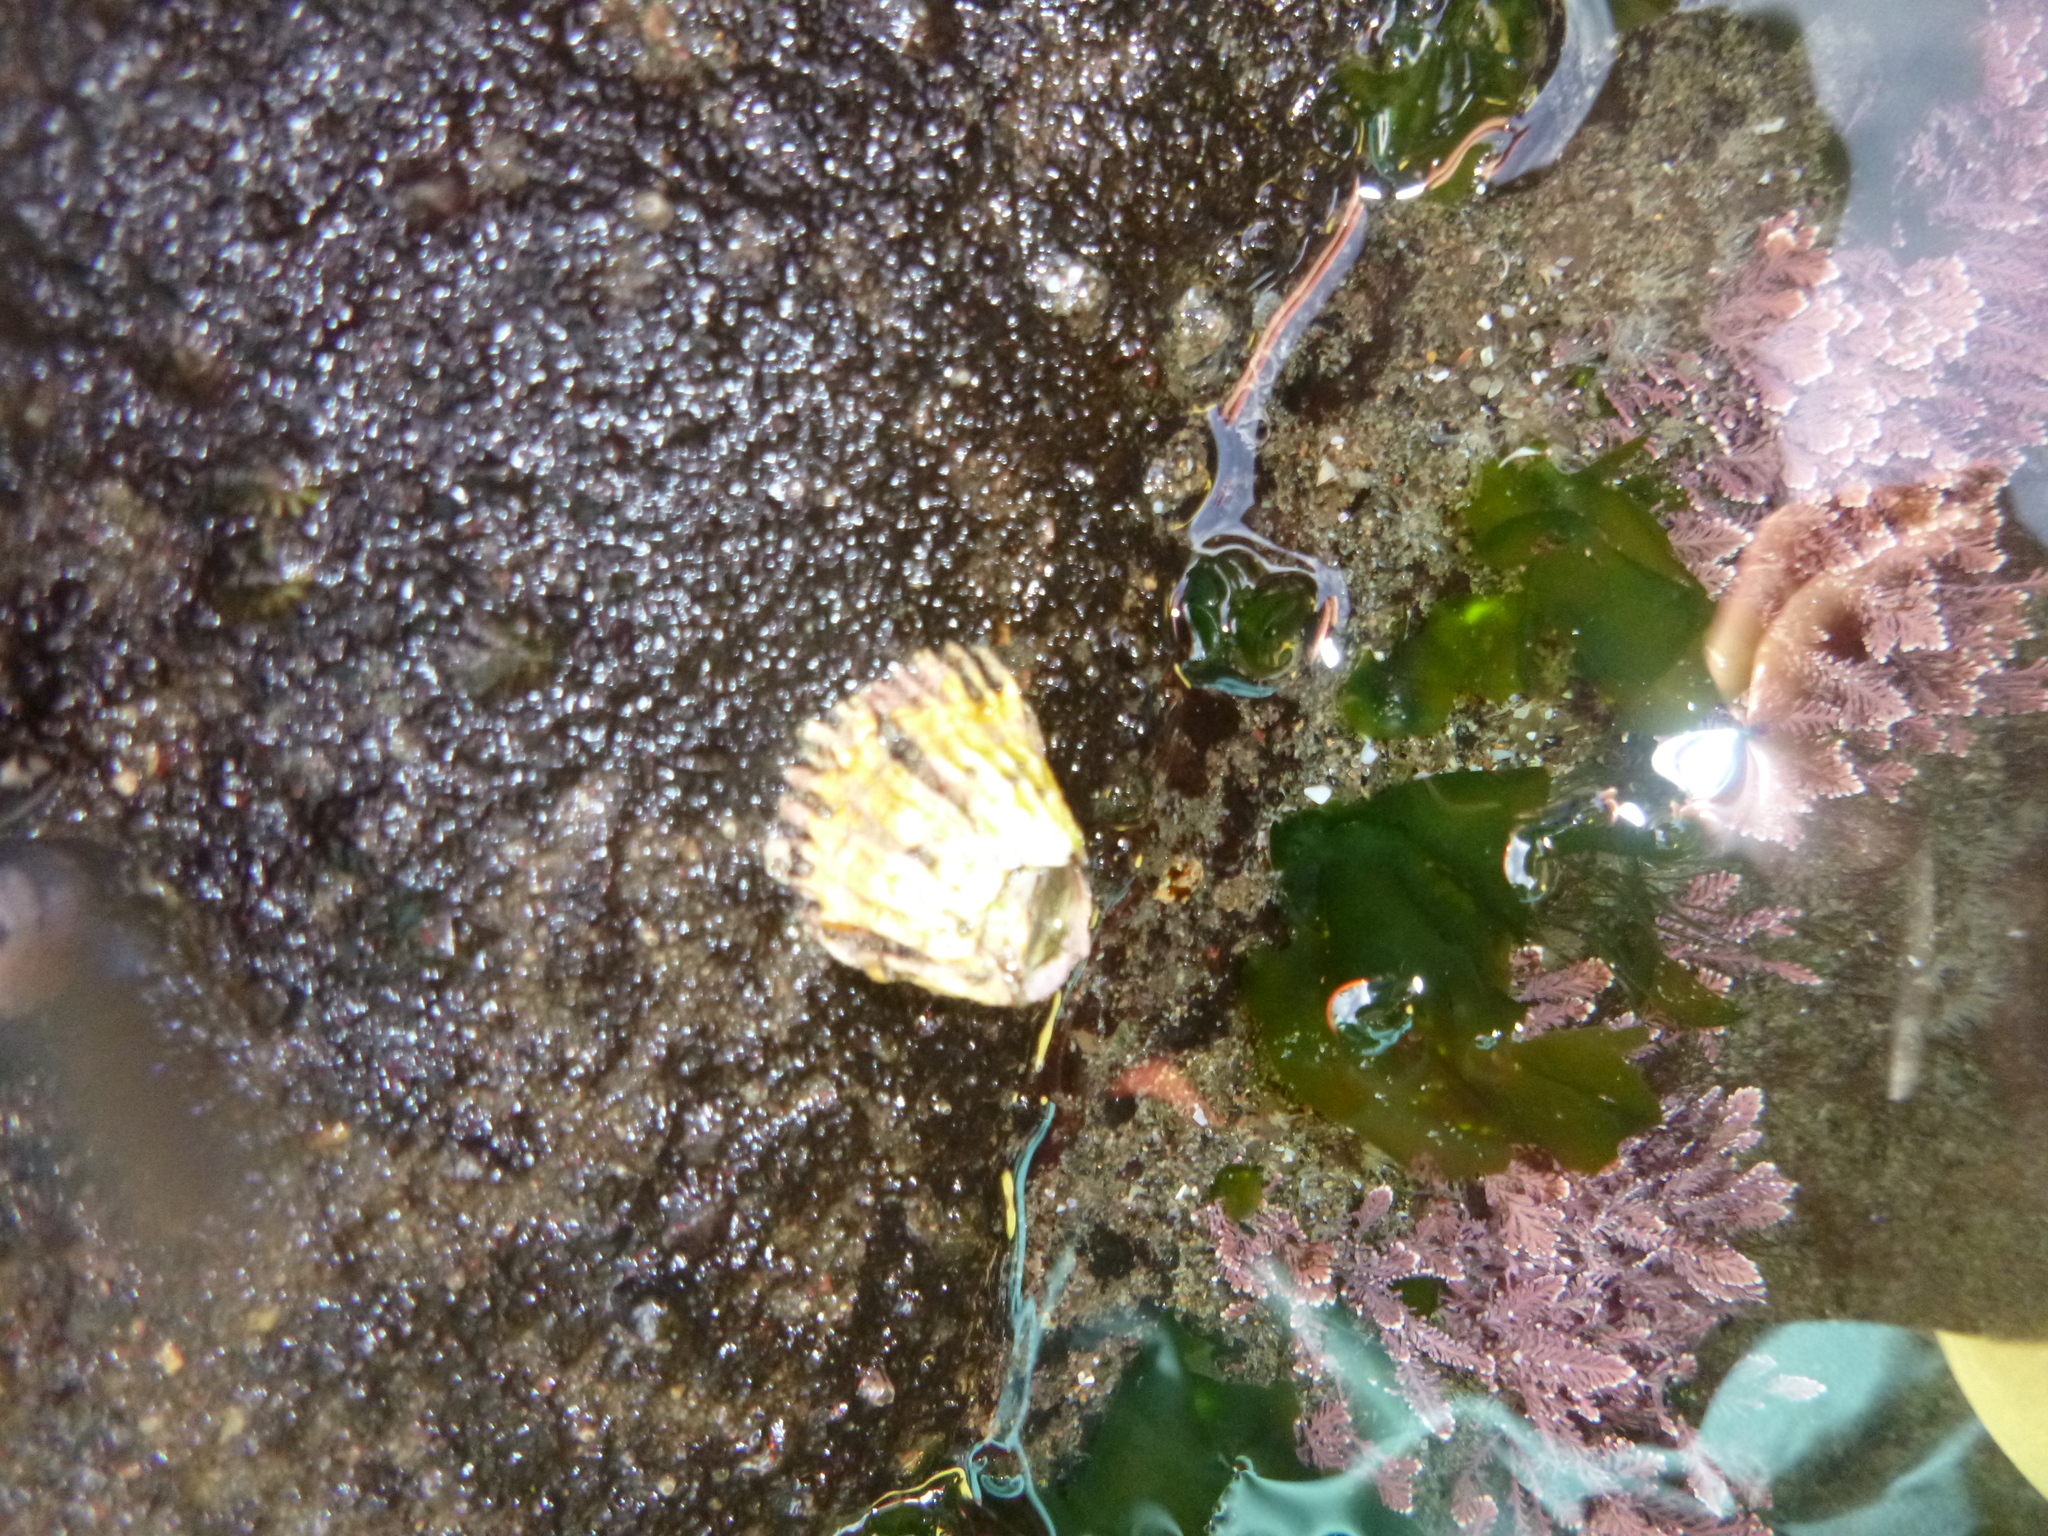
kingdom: Animalia
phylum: Arthropoda
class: Maxillopoda
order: Sessilia
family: Tetraclitidae
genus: Epopella
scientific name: Epopella plicata
